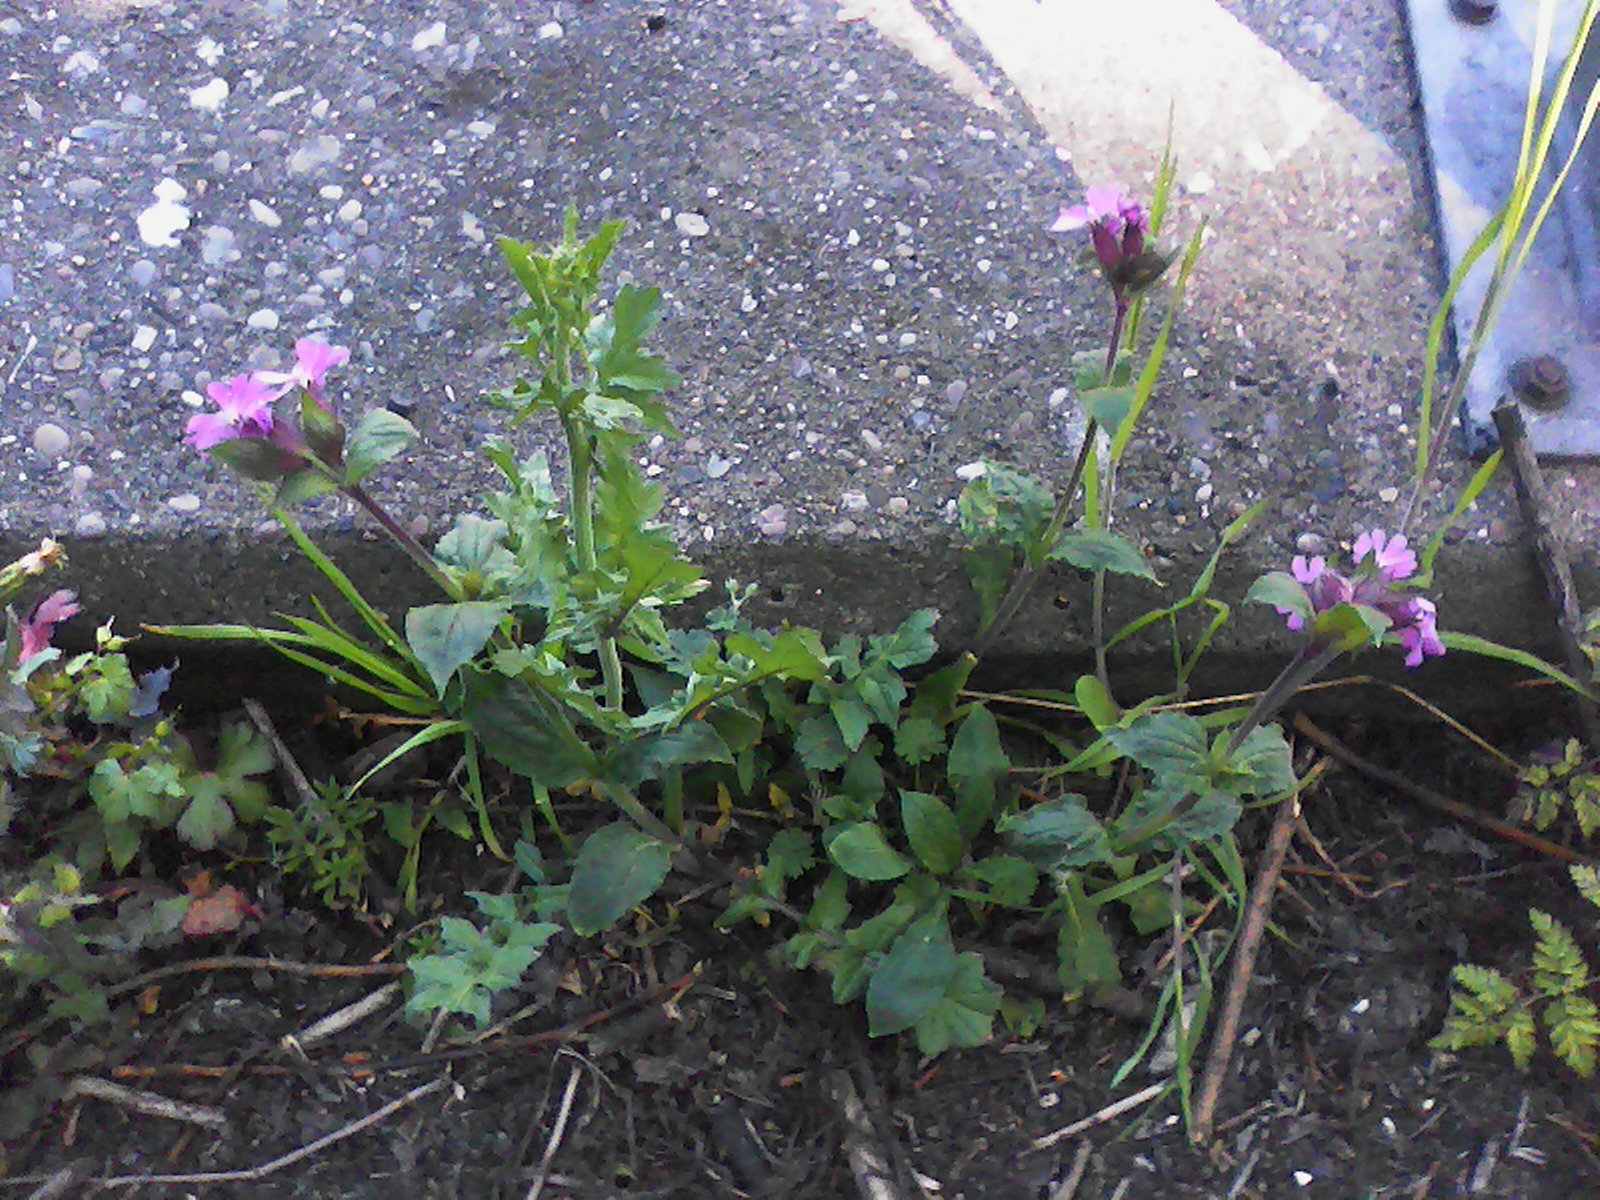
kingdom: Plantae
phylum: Tracheophyta
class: Magnoliopsida
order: Caryophyllales
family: Caryophyllaceae
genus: Silene
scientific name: Silene dioica
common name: Red campion
